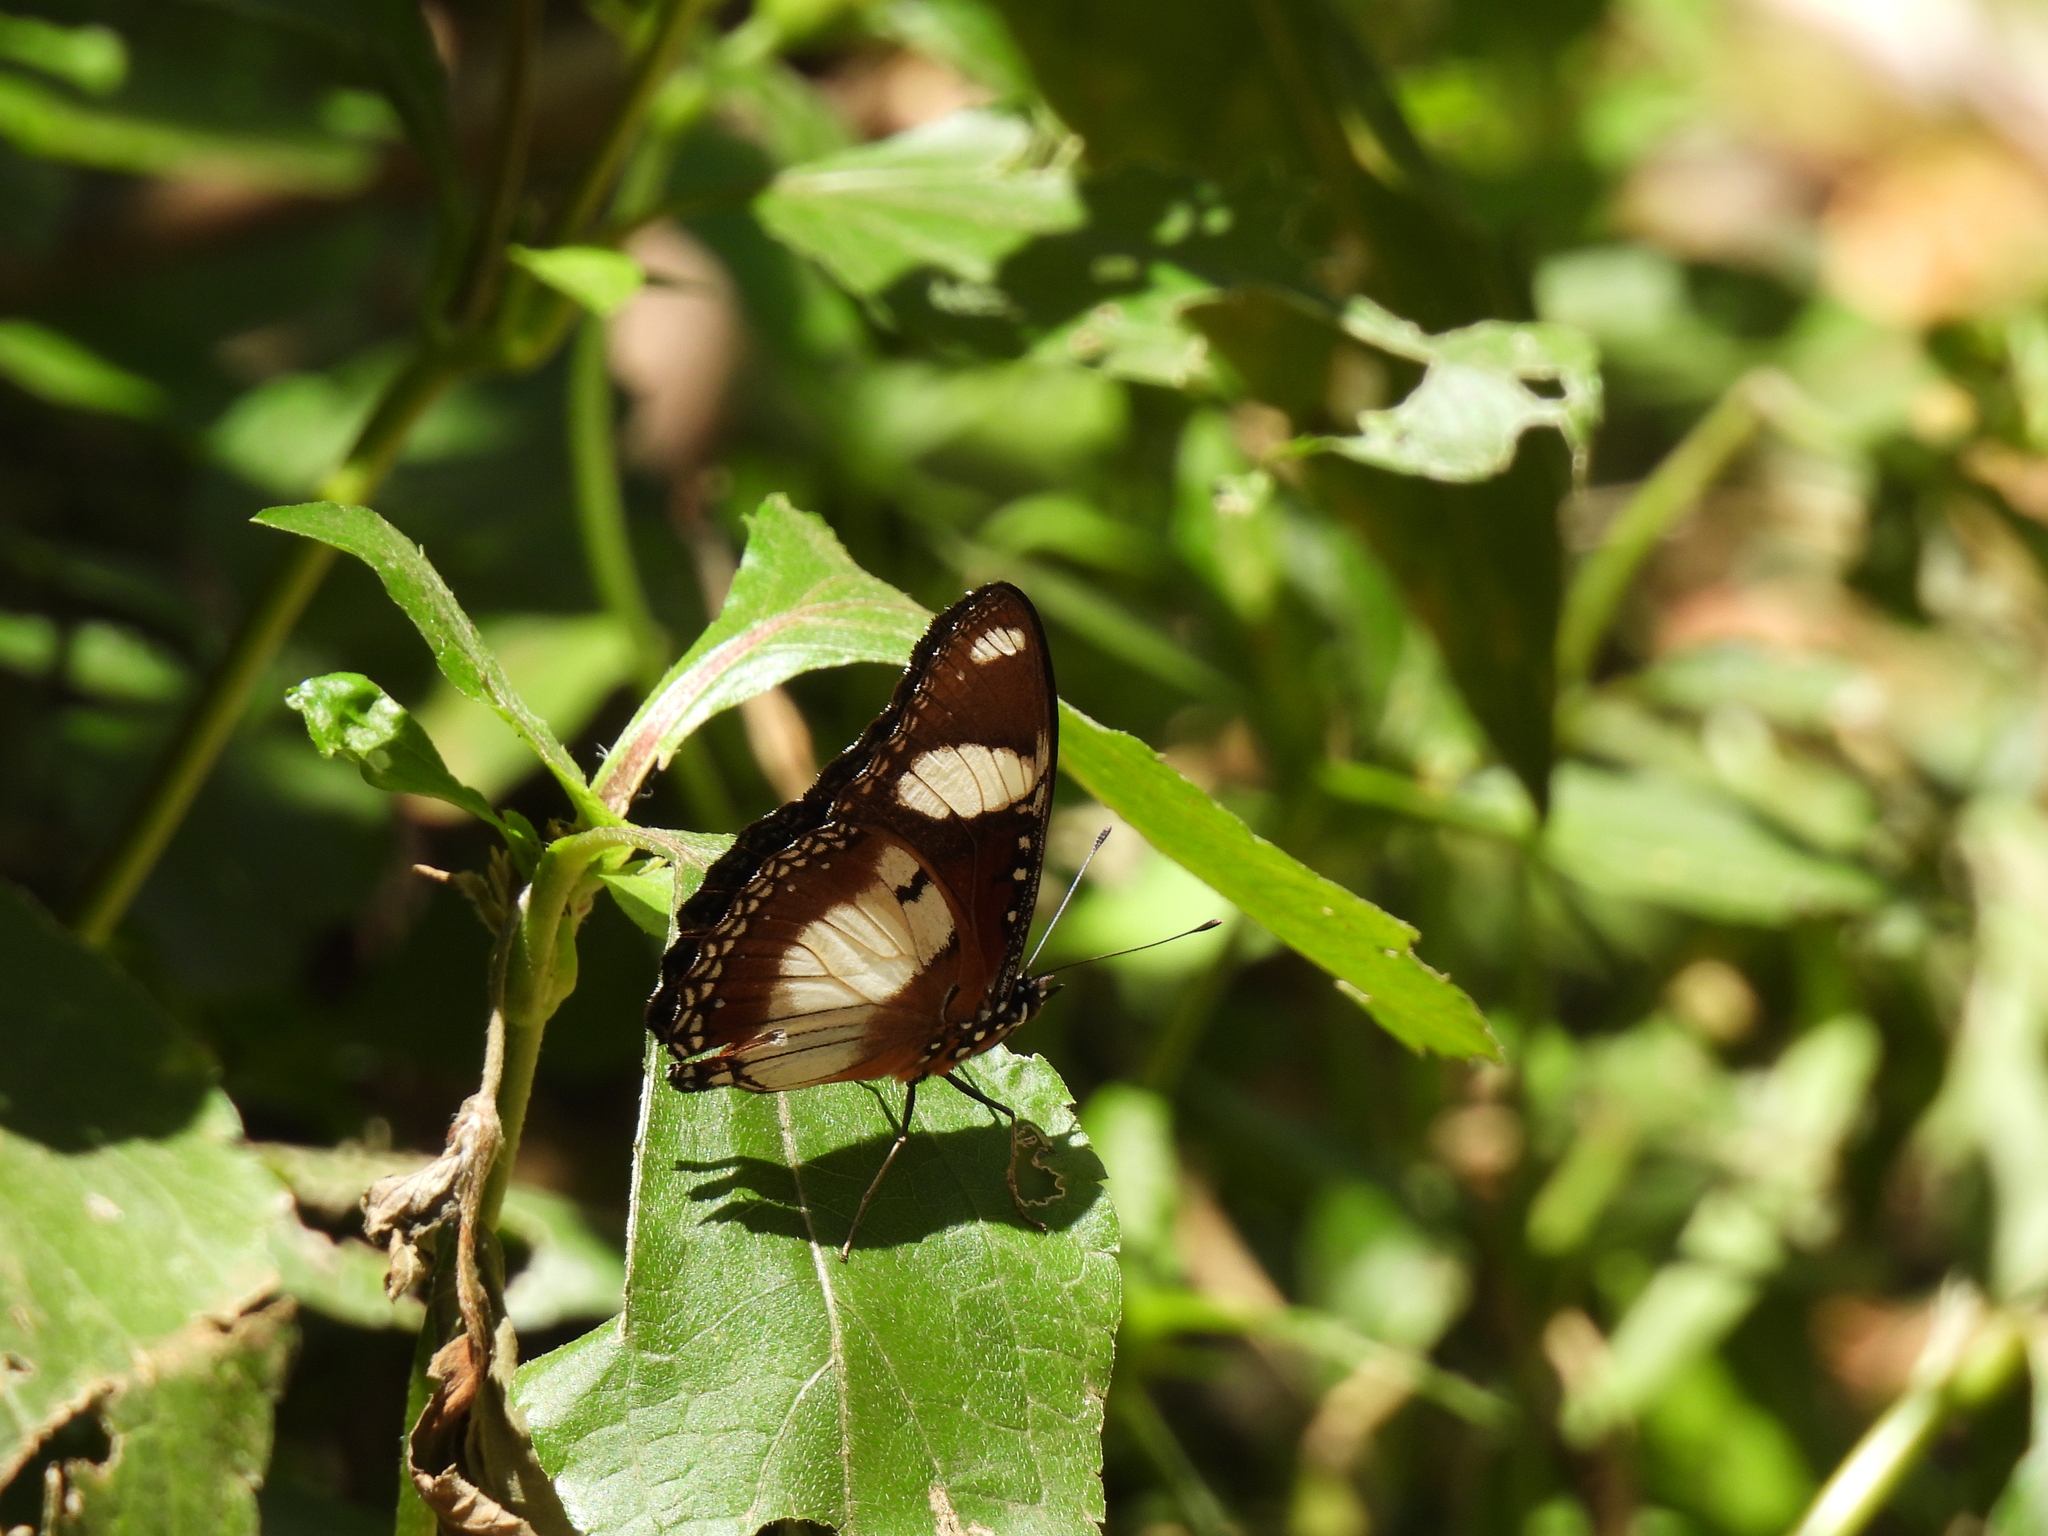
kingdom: Animalia
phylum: Arthropoda
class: Insecta
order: Lepidoptera
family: Nymphalidae
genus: Hypolimnas
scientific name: Hypolimnas misippus
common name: False plain tiger
